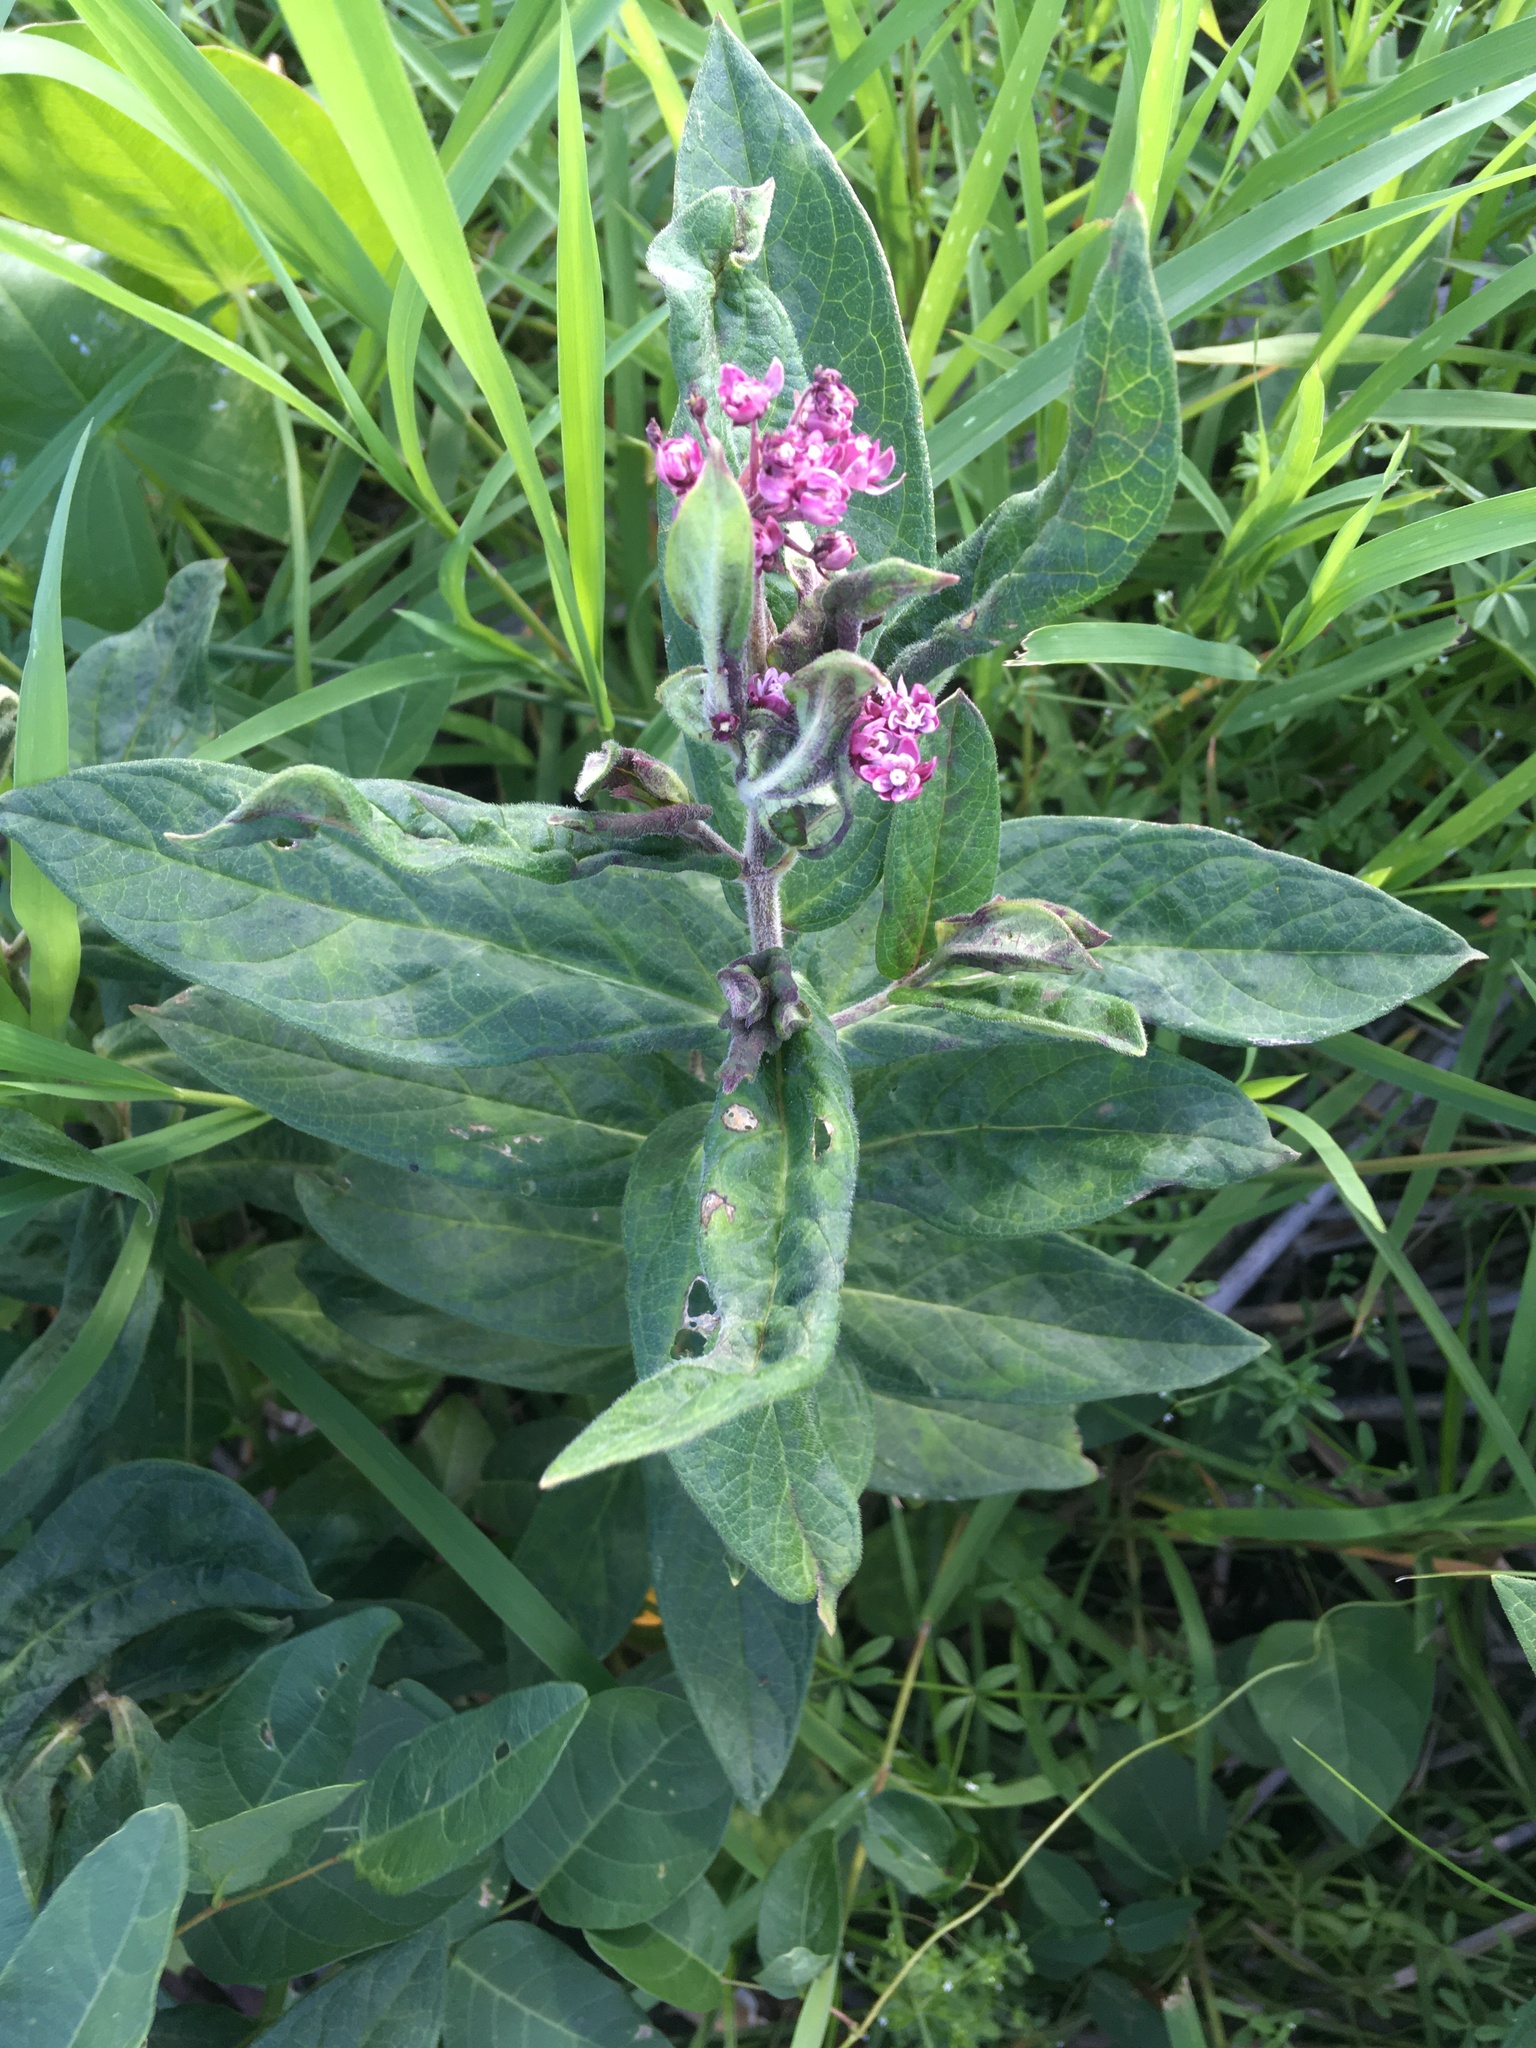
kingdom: Plantae
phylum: Tracheophyta
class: Magnoliopsida
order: Gentianales
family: Apocynaceae
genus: Asclepias
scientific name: Asclepias incarnata
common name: Swamp milkweed
